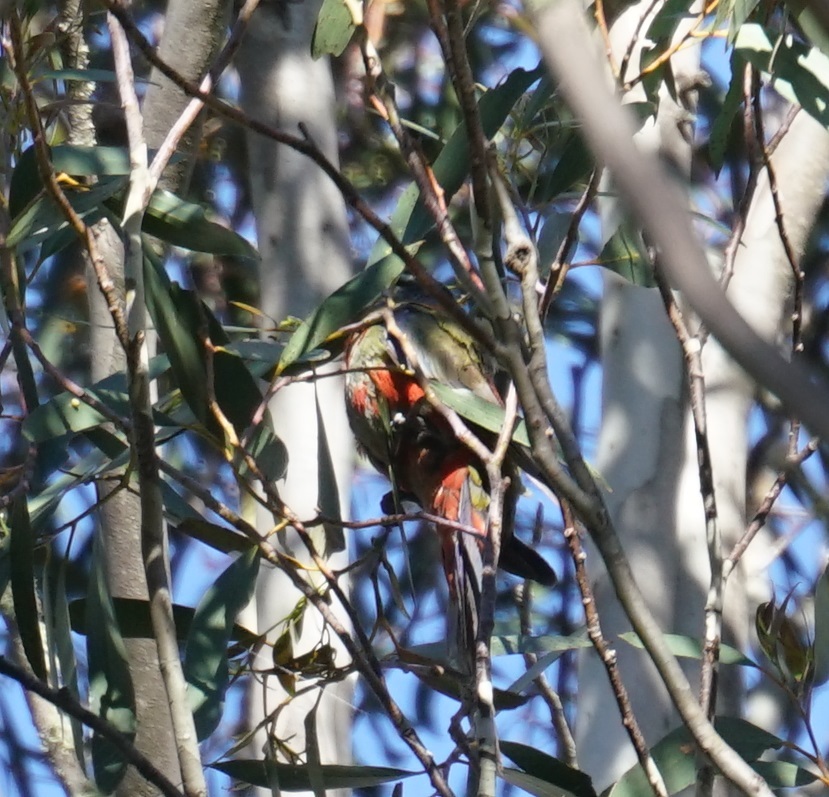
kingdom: Animalia
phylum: Chordata
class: Aves
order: Psittaciformes
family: Psittacidae
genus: Platycercus
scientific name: Platycercus elegans
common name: Crimson rosella
